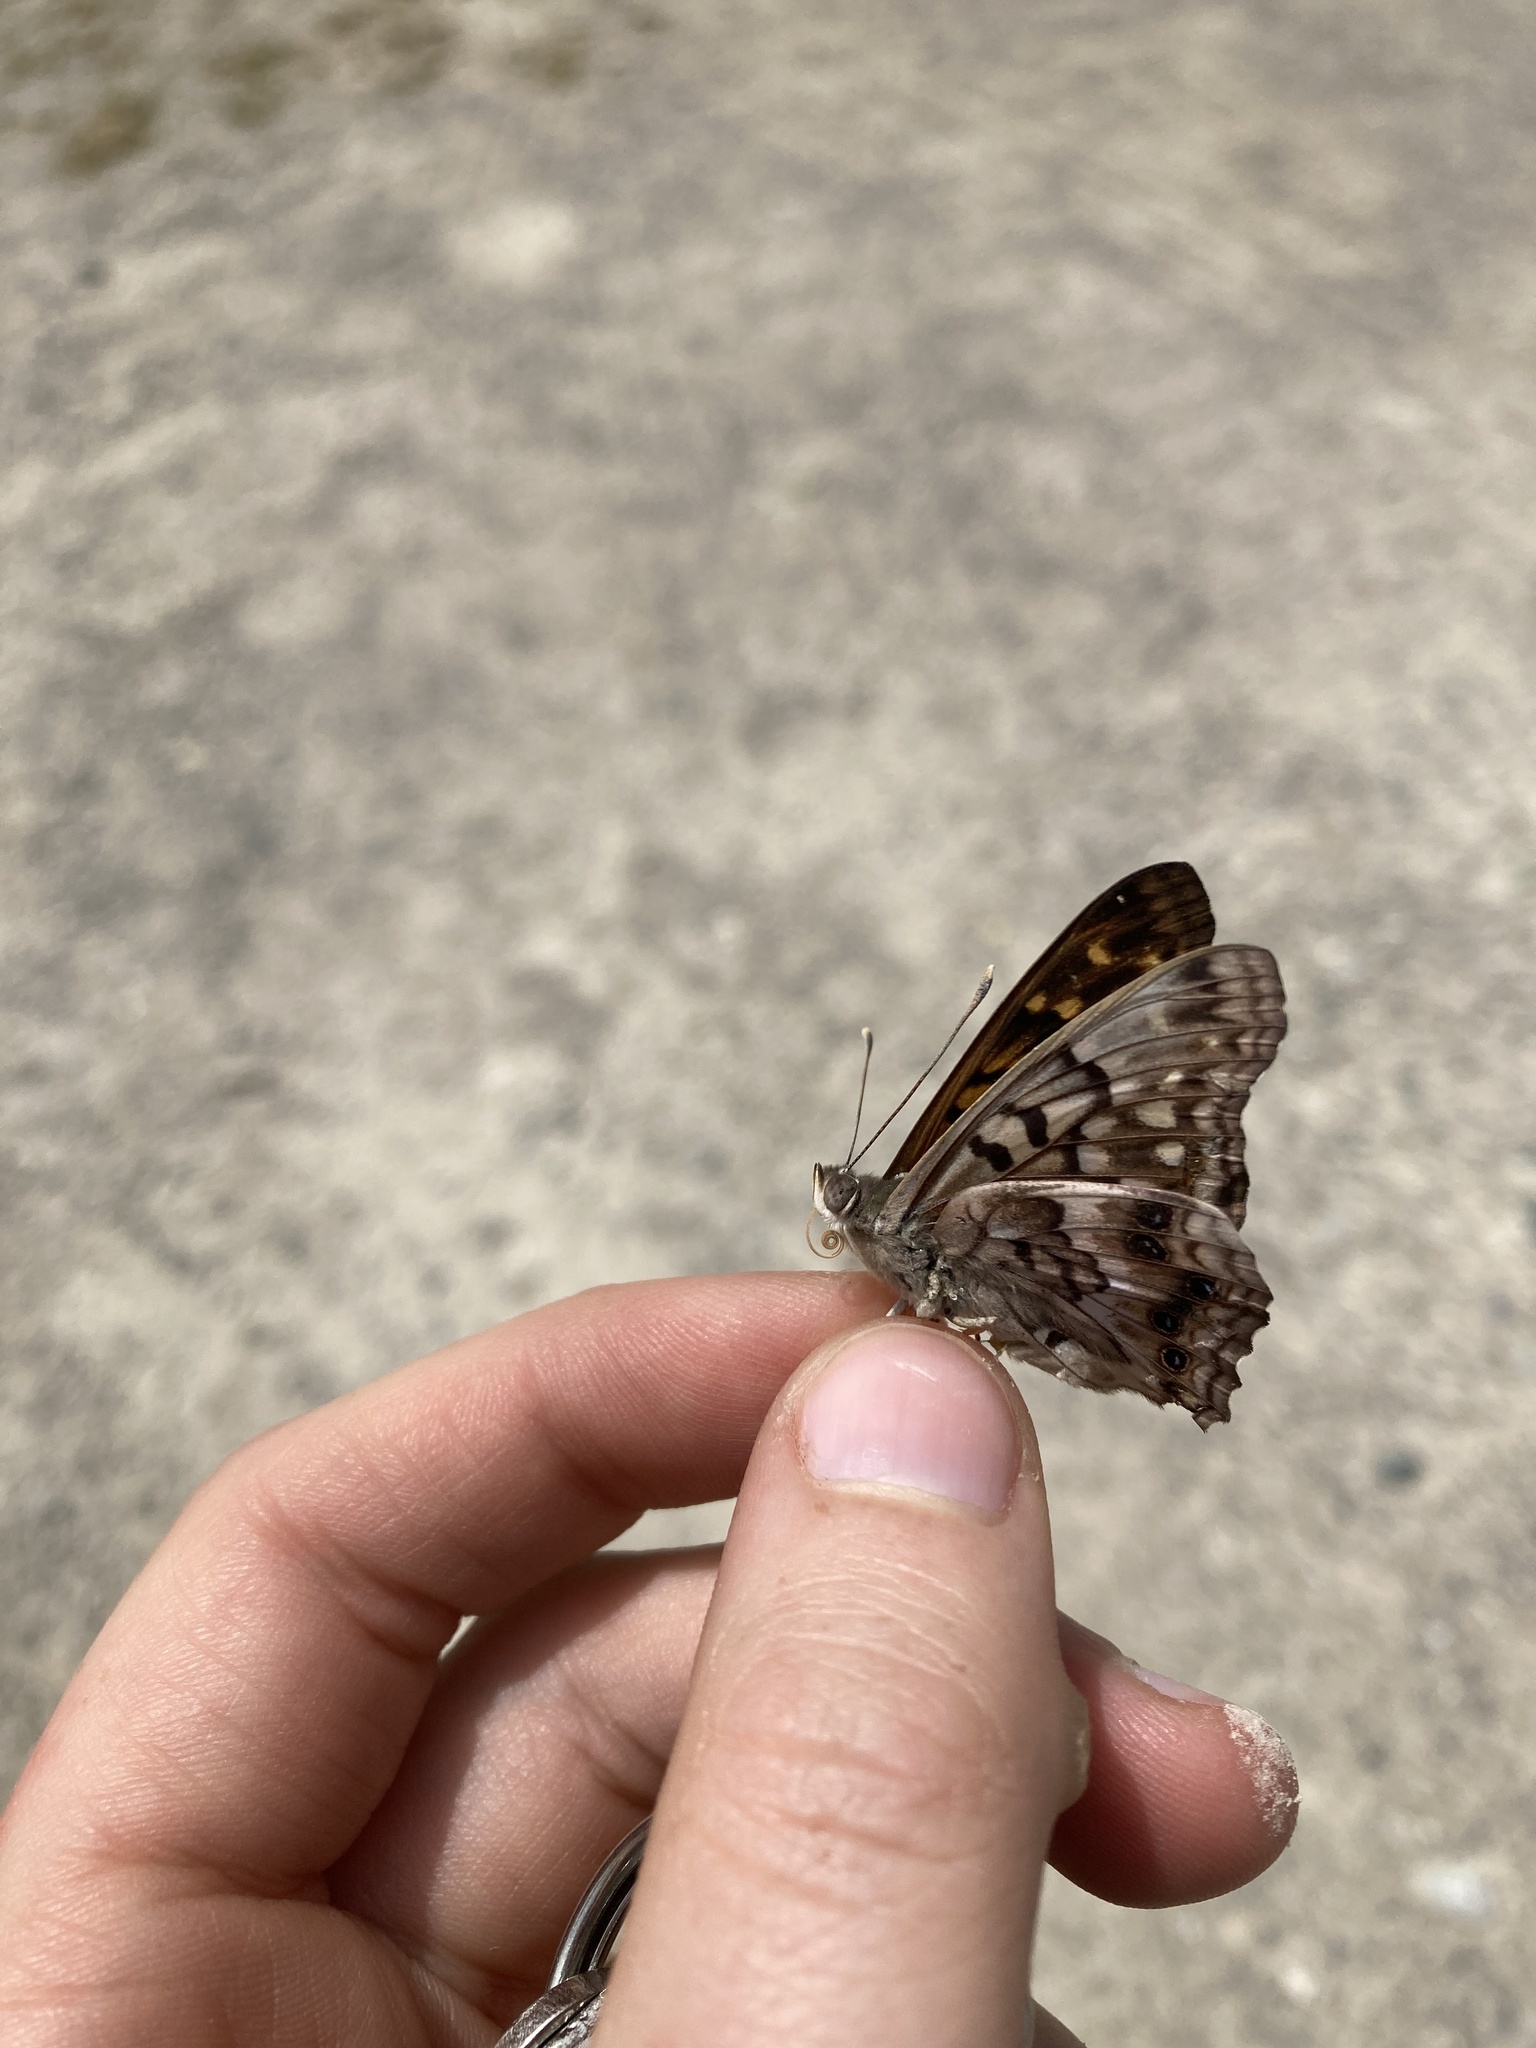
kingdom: Animalia
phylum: Arthropoda
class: Insecta
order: Lepidoptera
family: Nymphalidae
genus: Asterocampa
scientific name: Asterocampa clyton
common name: Tawny emperor
